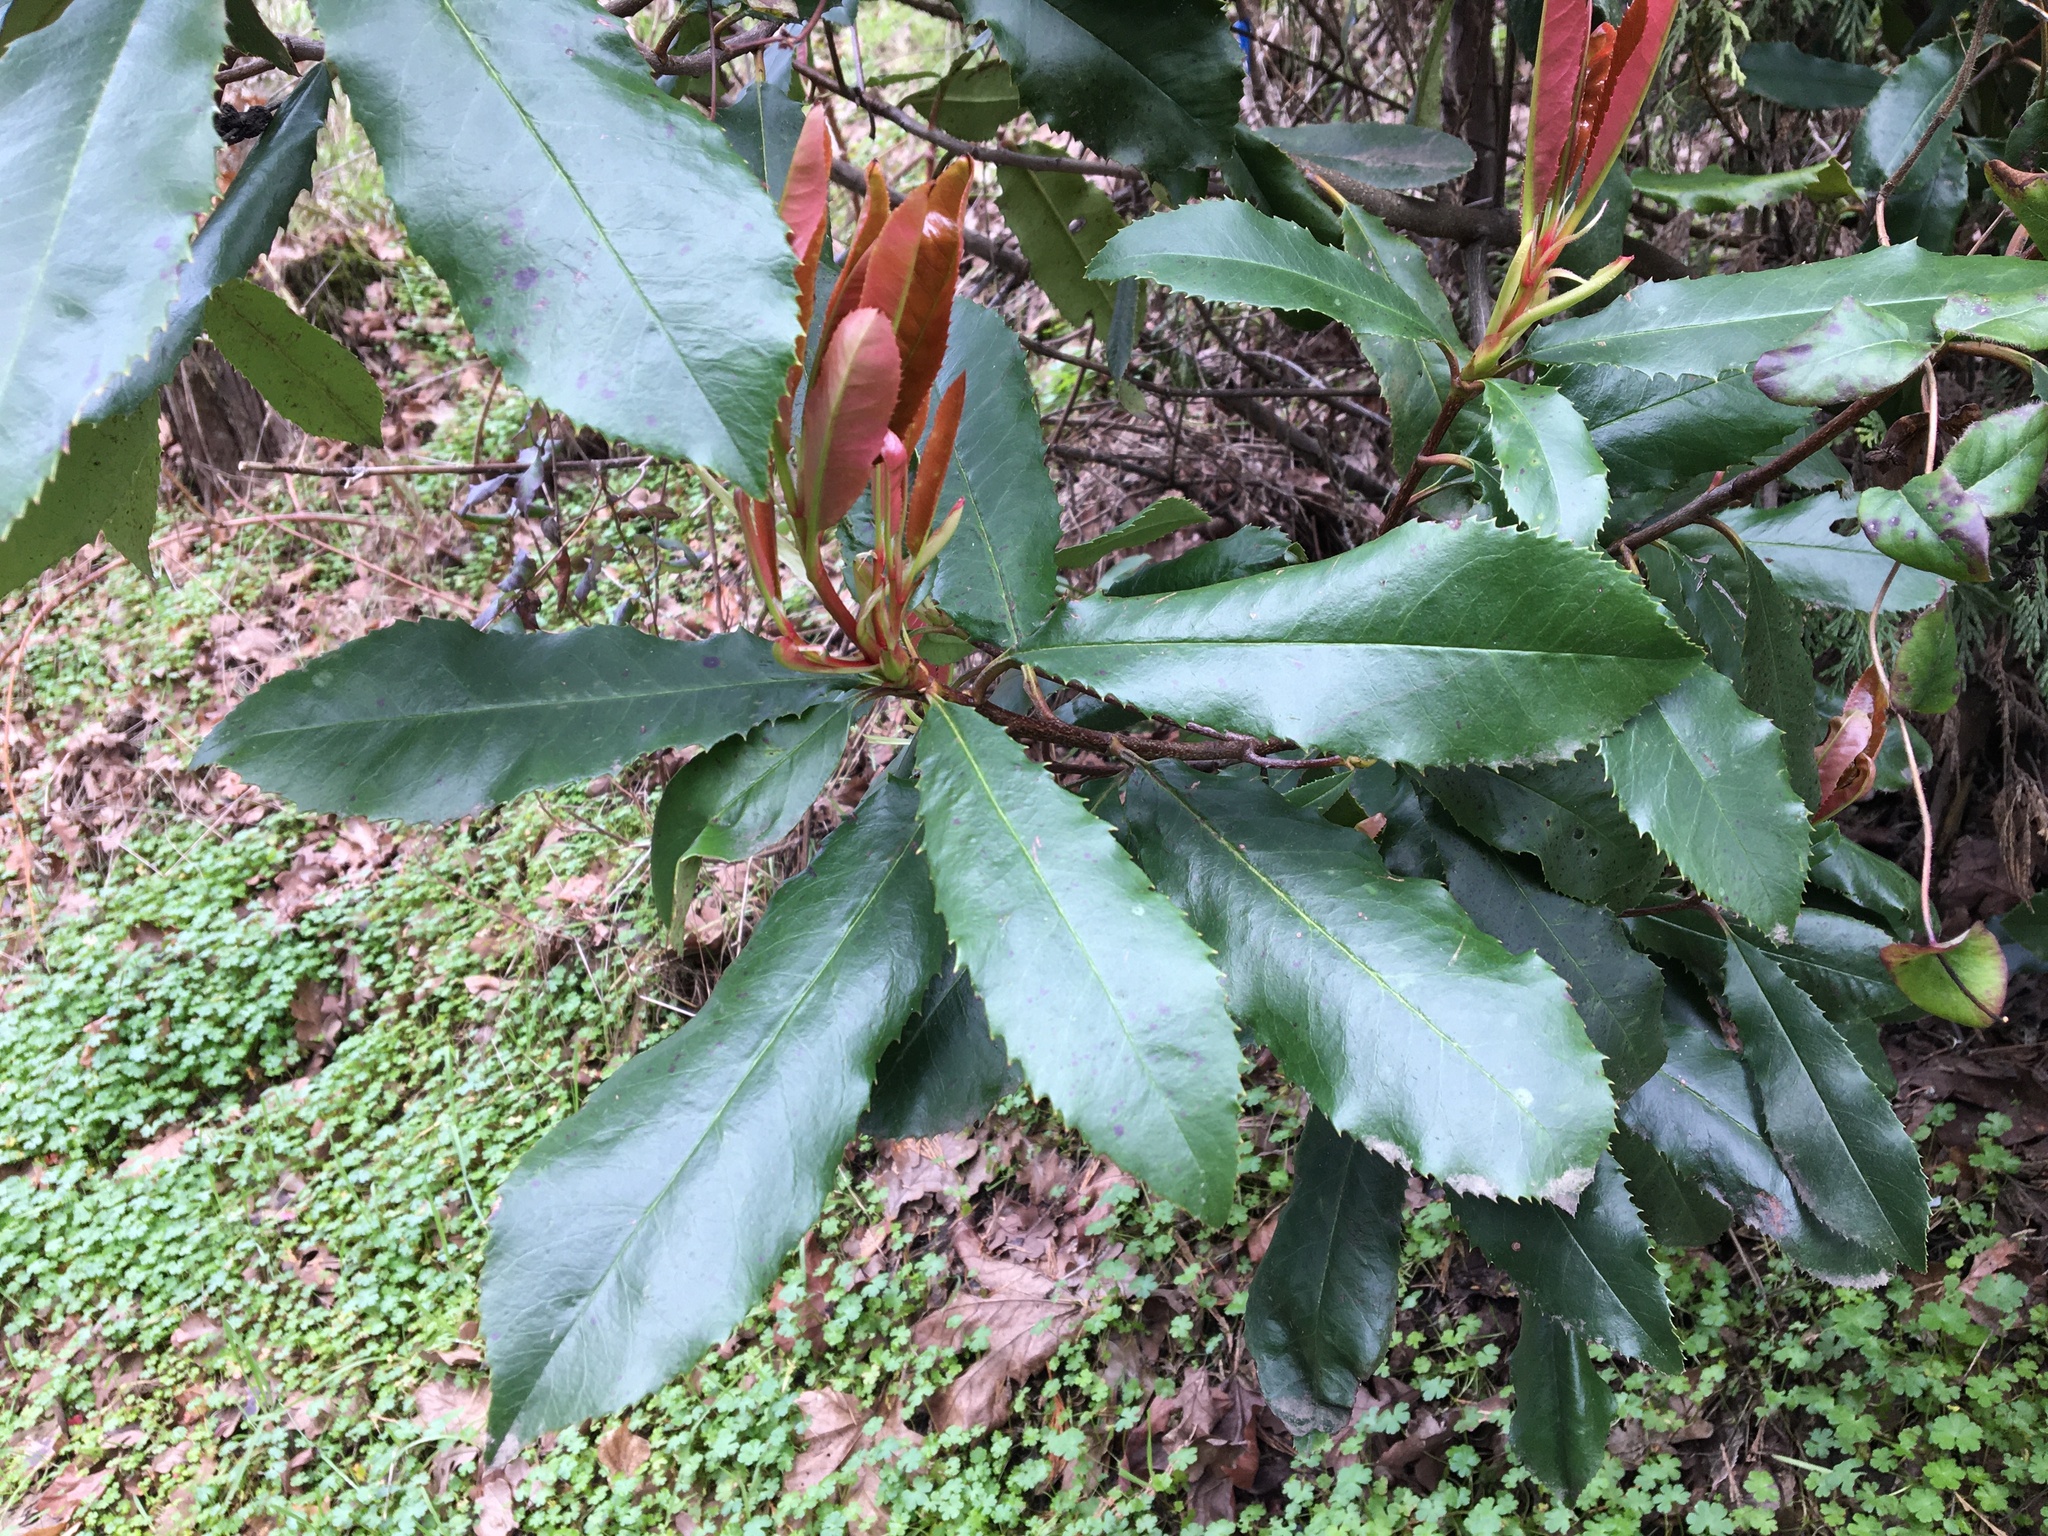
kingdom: Plantae
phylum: Tracheophyta
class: Magnoliopsida
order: Rosales
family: Rosaceae
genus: Photinia
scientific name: Photinia serratifolia
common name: Taiwanese photinia
